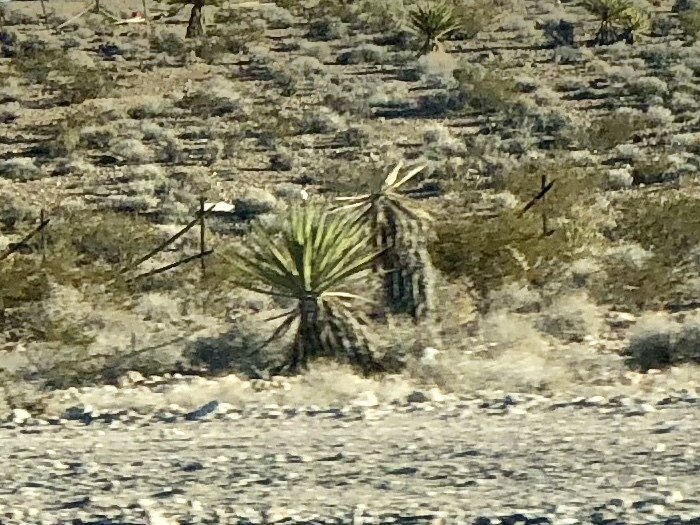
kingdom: Plantae
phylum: Tracheophyta
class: Liliopsida
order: Asparagales
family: Asparagaceae
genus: Yucca
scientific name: Yucca schidigera
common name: Mojave yucca
